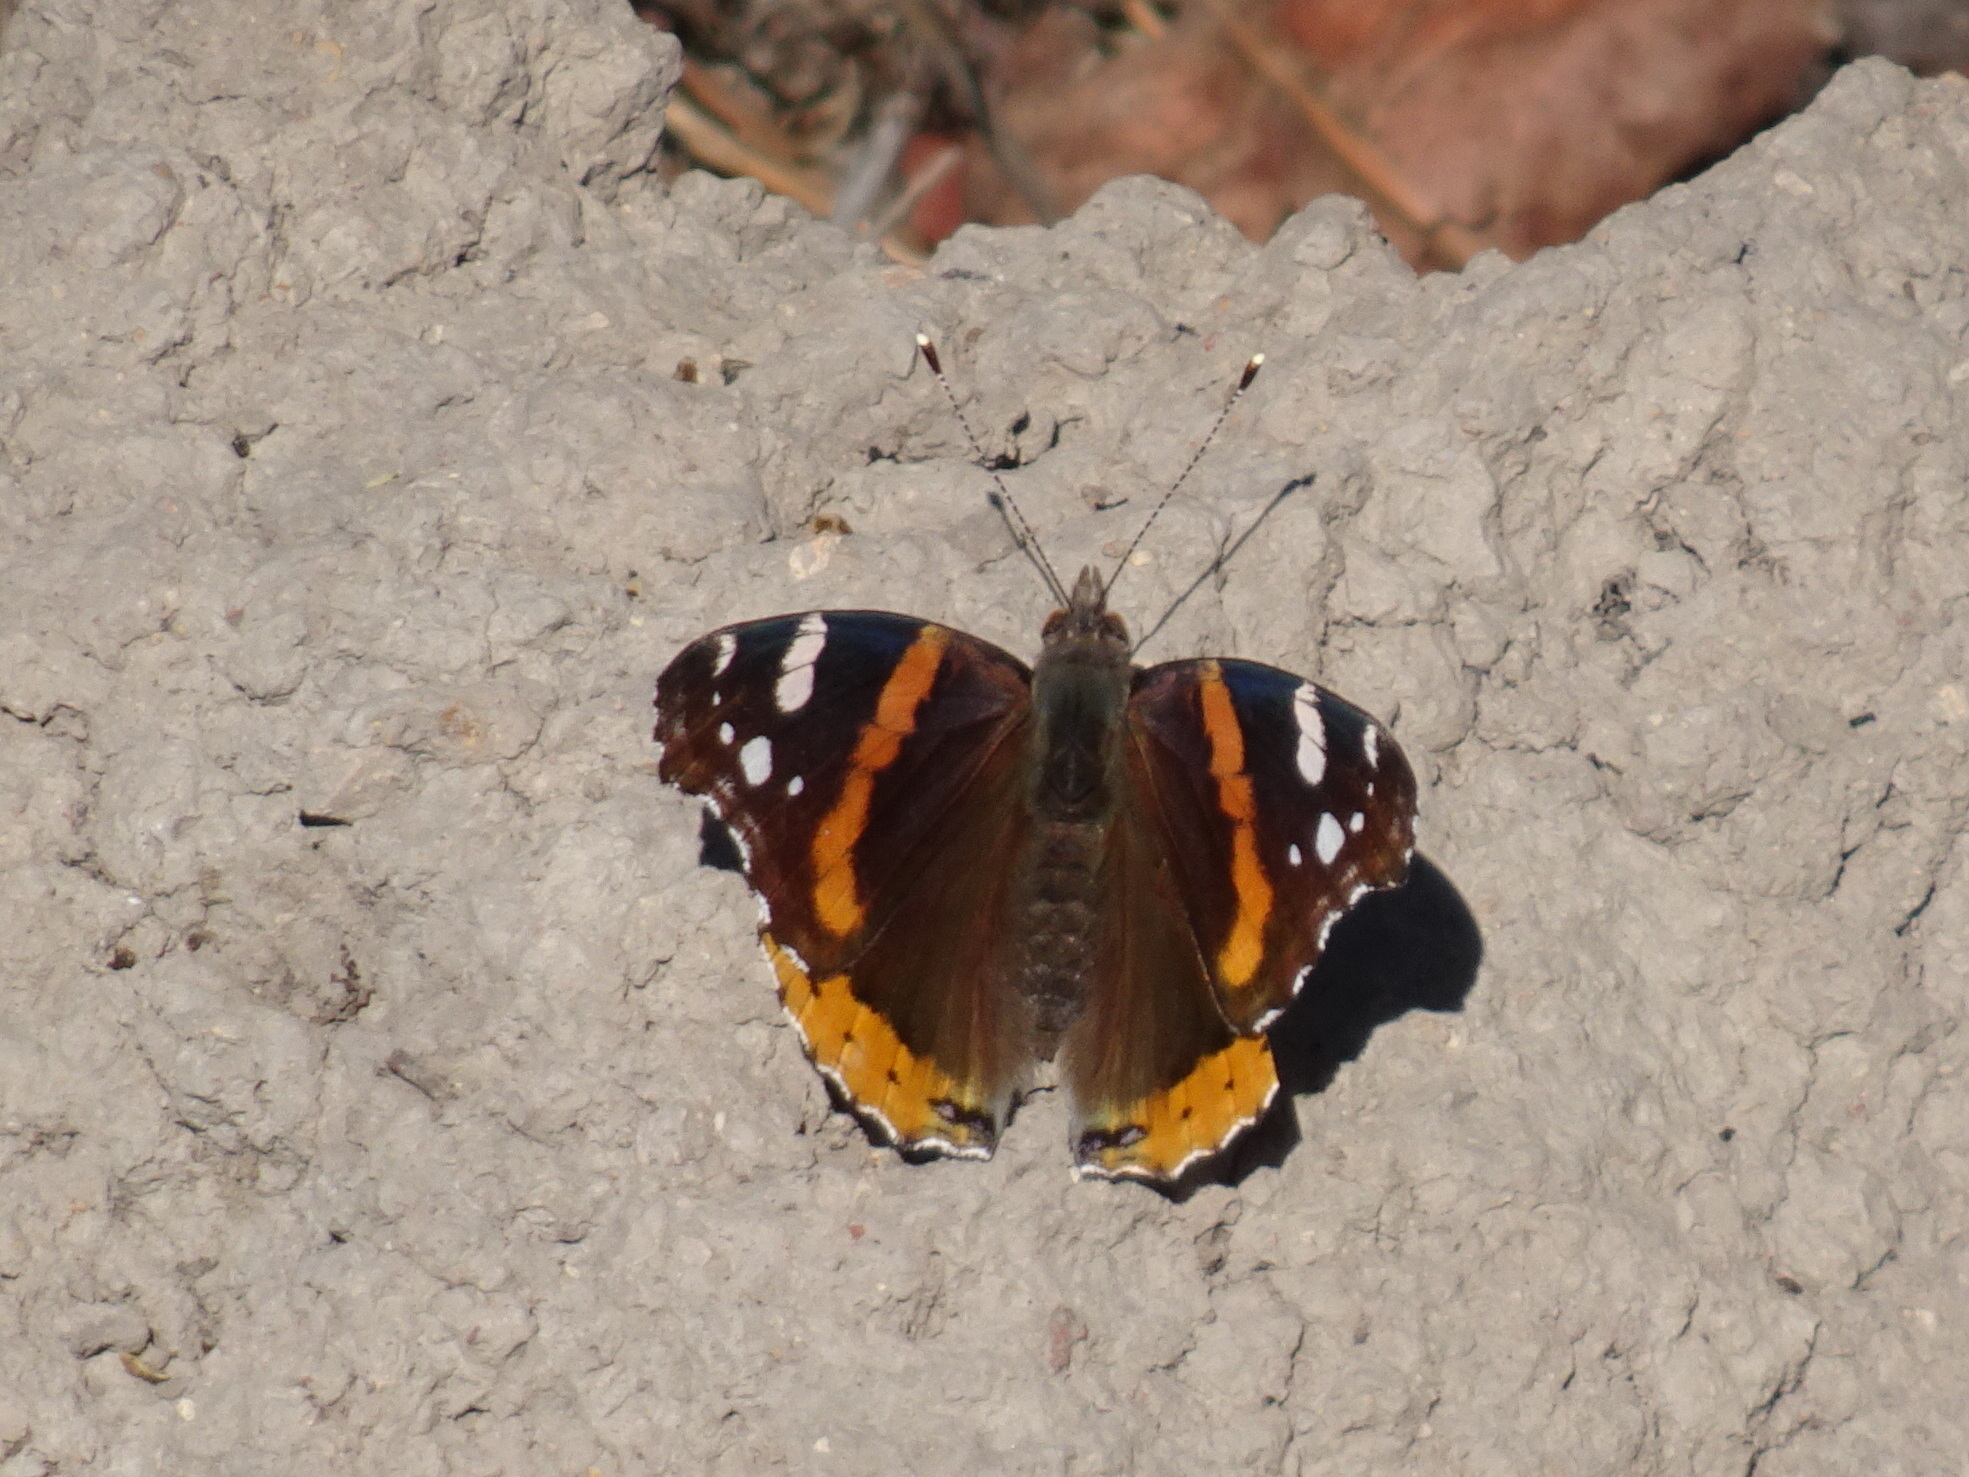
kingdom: Animalia
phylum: Arthropoda
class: Insecta
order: Lepidoptera
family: Nymphalidae
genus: Vanessa
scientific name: Vanessa atalanta
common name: Red admiral
